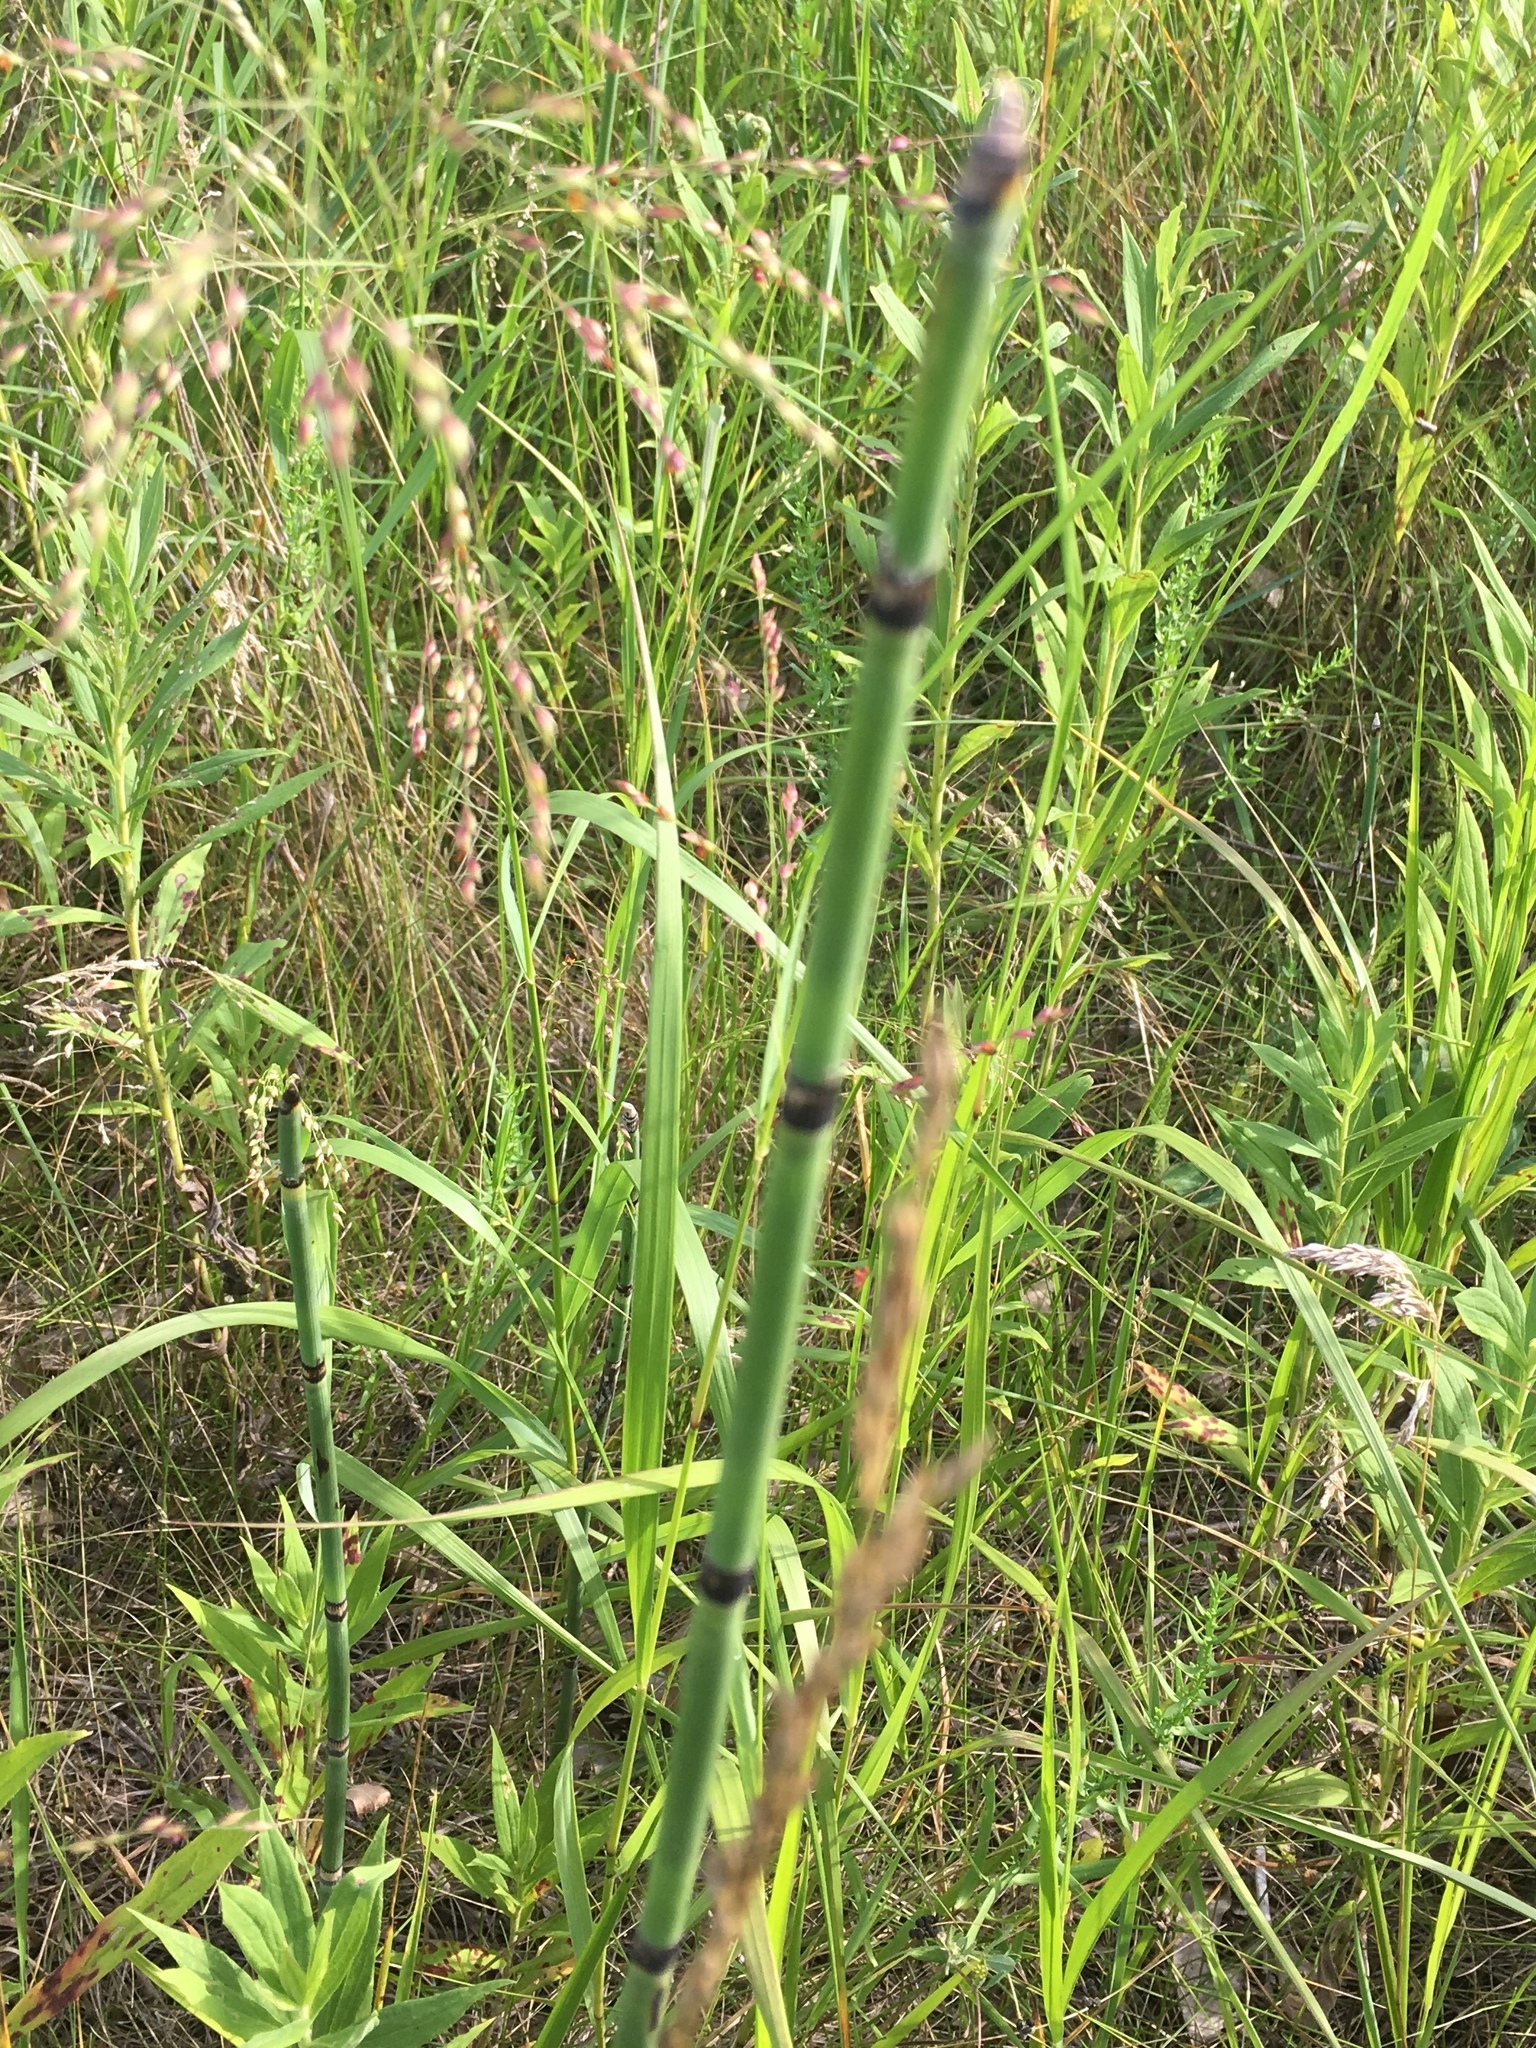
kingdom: Plantae
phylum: Tracheophyta
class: Polypodiopsida
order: Equisetales
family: Equisetaceae
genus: Equisetum
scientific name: Equisetum hyemale
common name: Rough horsetail
